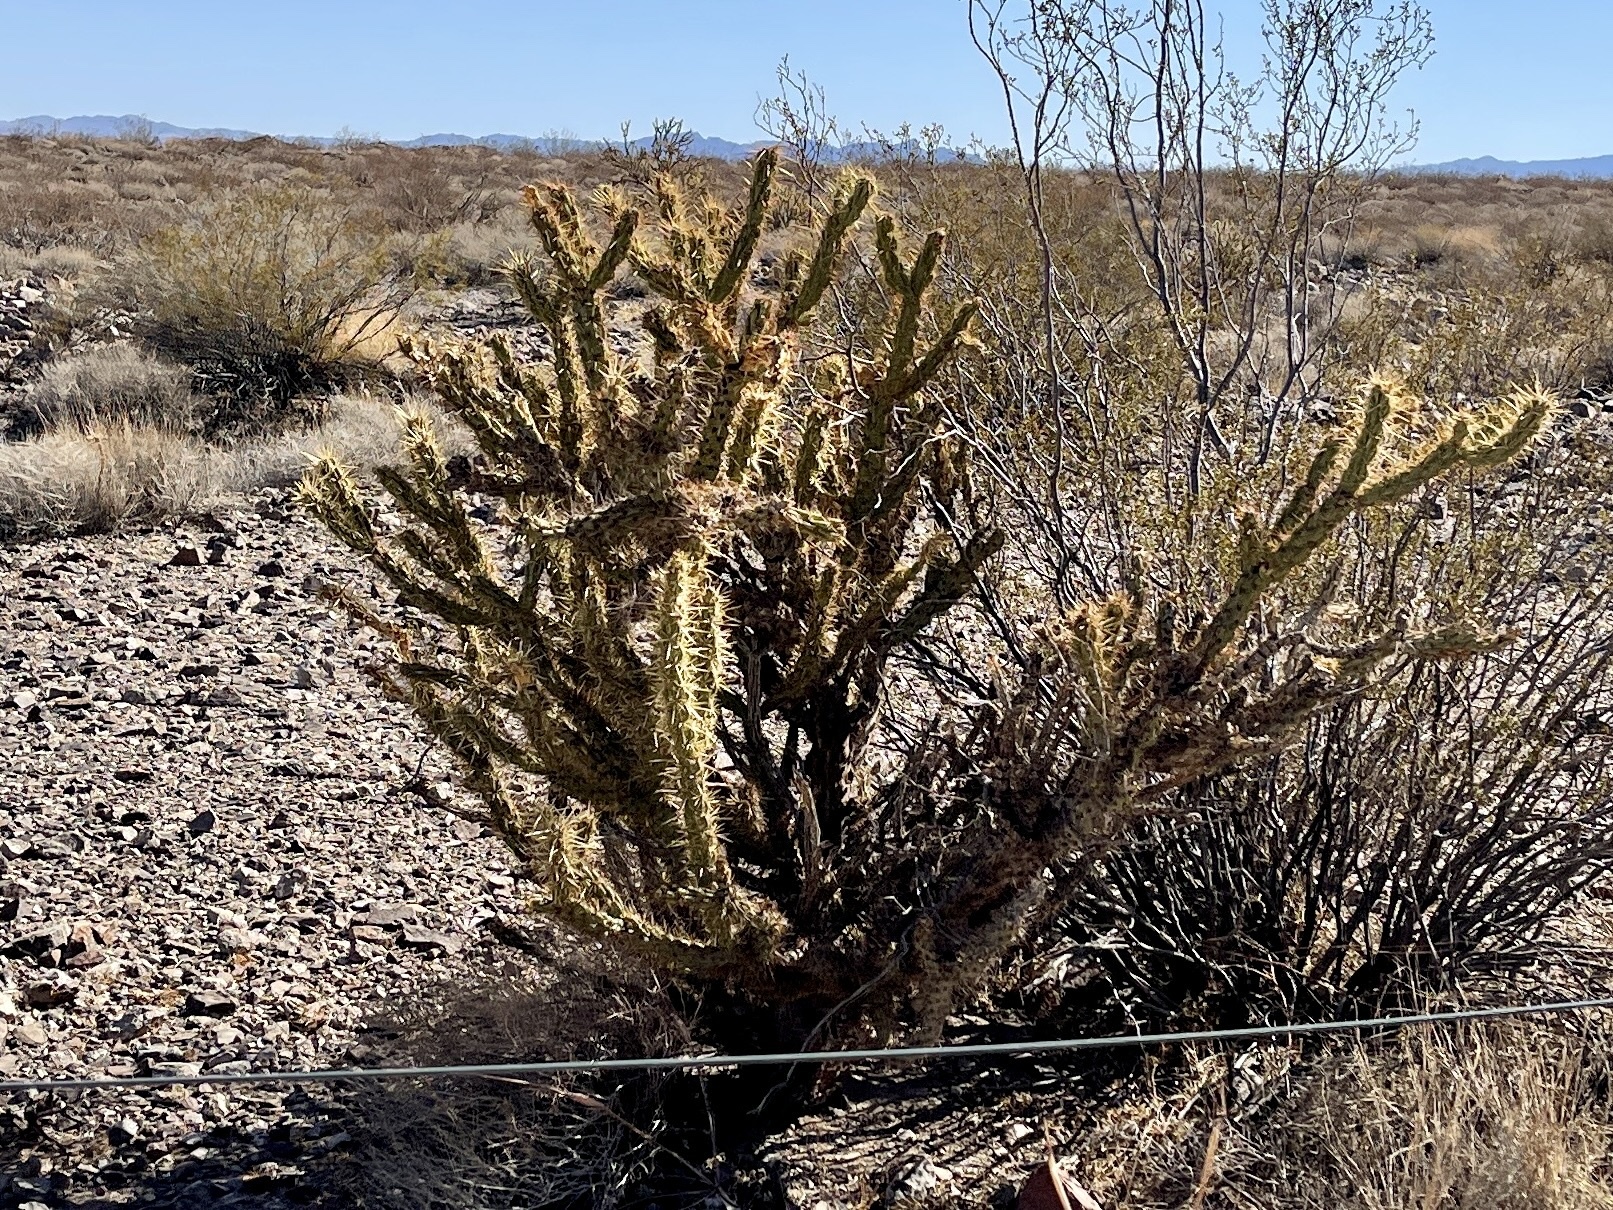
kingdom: Plantae
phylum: Tracheophyta
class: Magnoliopsida
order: Caryophyllales
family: Cactaceae
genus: Cylindropuntia
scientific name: Cylindropuntia acanthocarpa
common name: Buckhorn cholla
